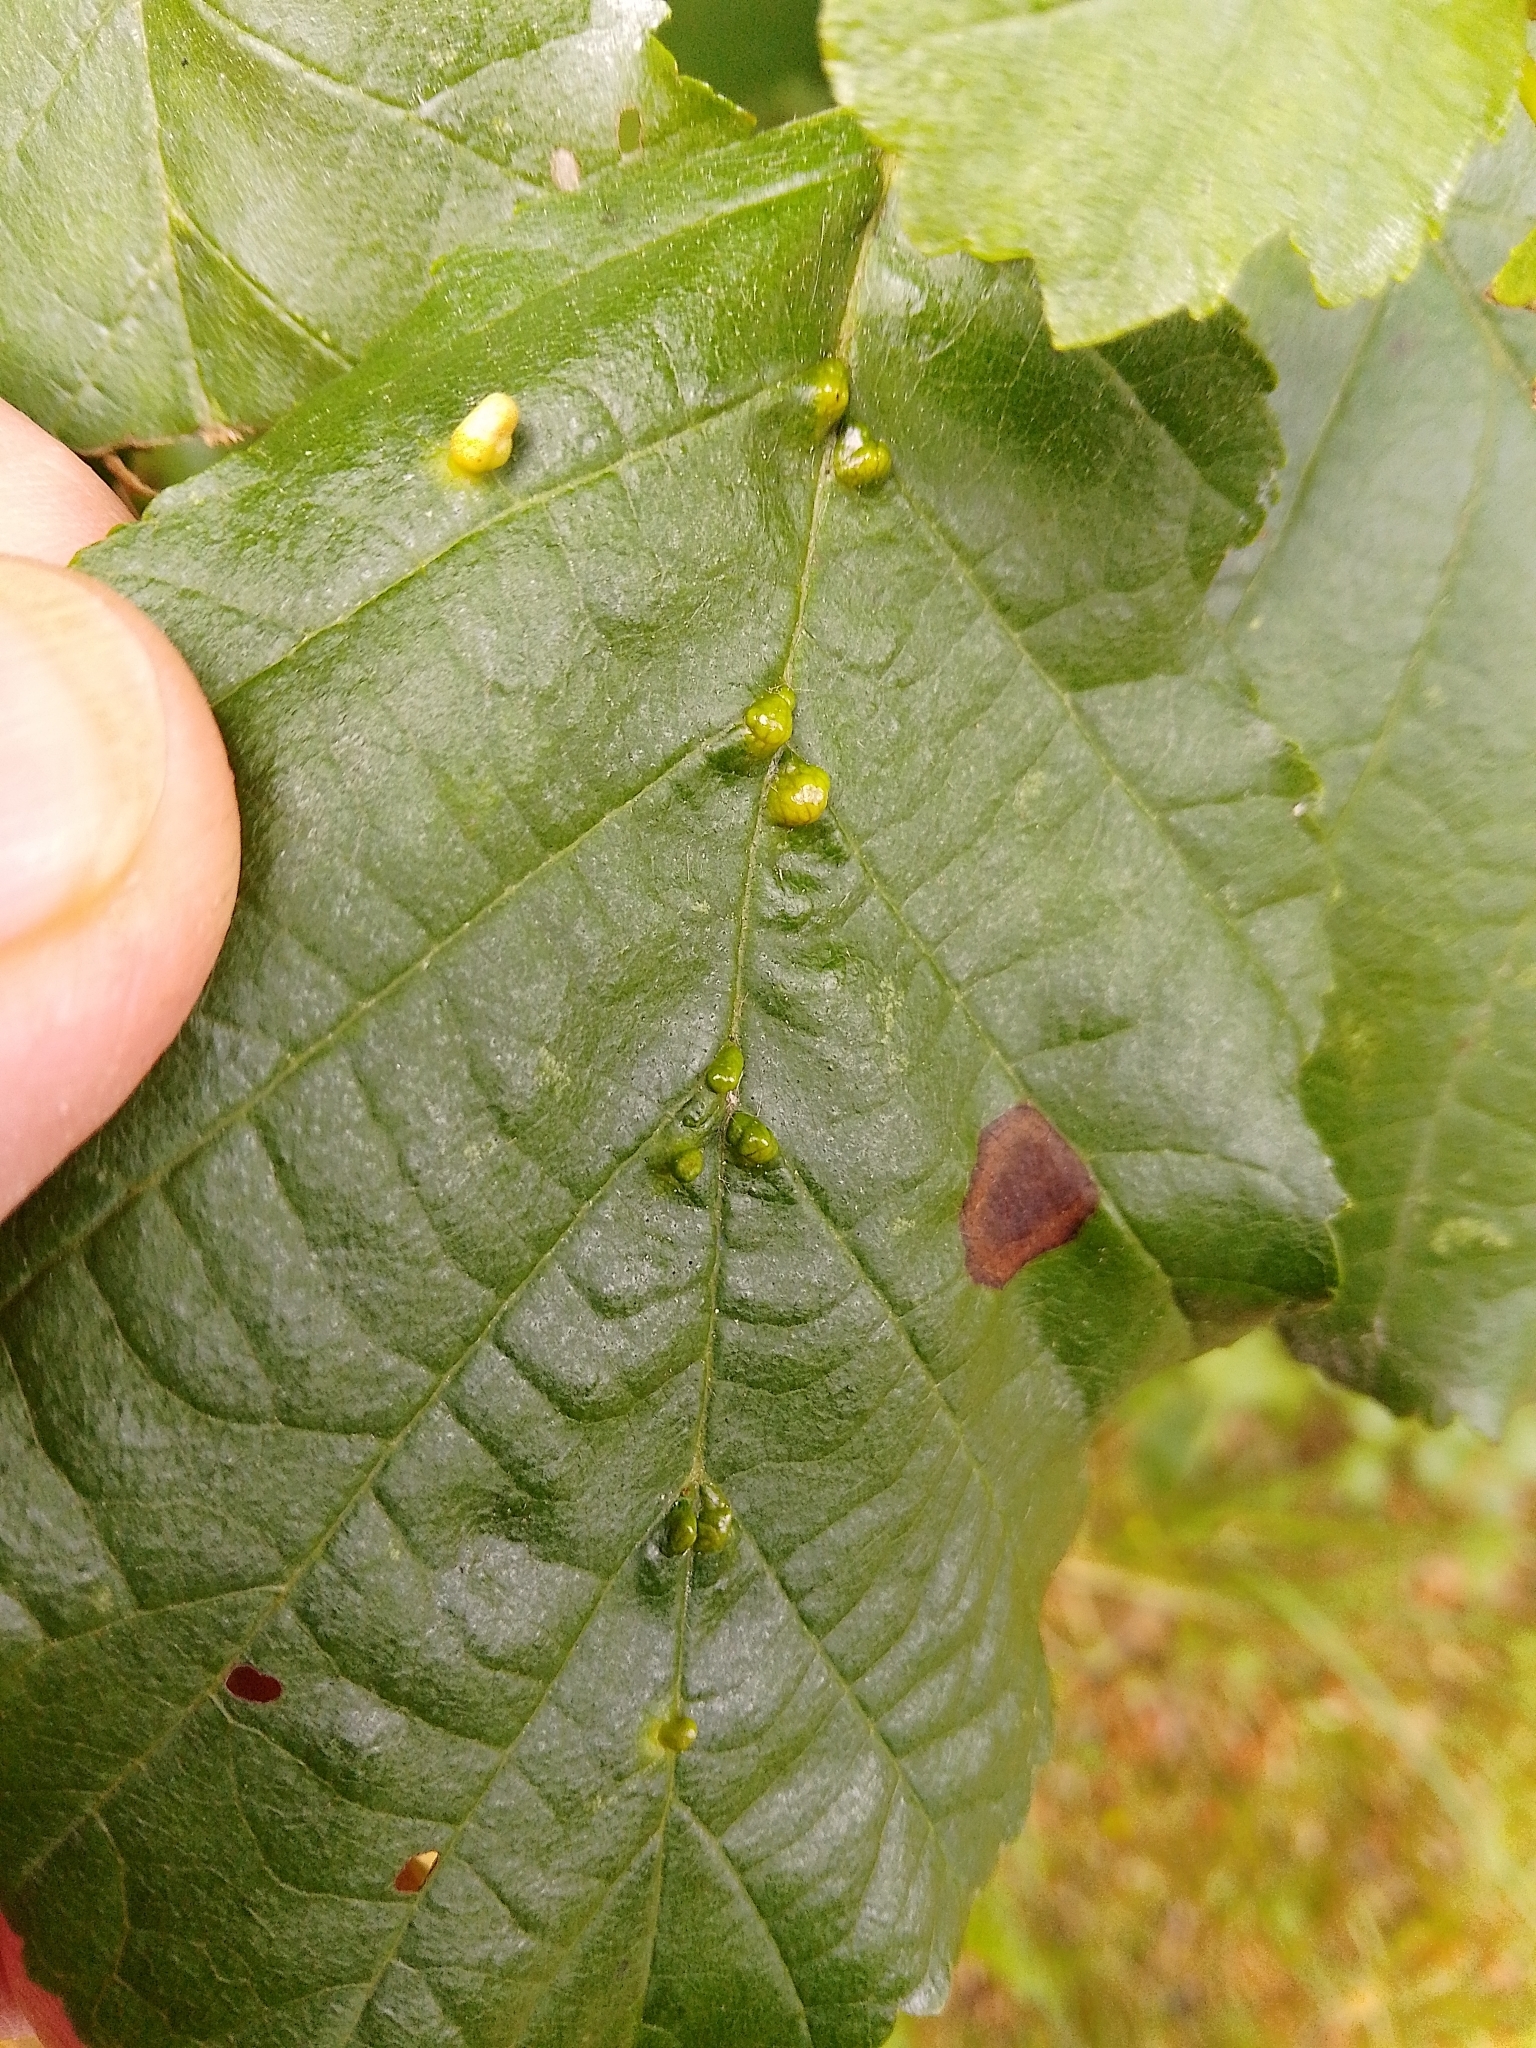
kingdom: Animalia
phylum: Arthropoda
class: Arachnida
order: Trombidiformes
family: Eriophyidae
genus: Eriophyes
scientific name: Eriophyes inangulis
